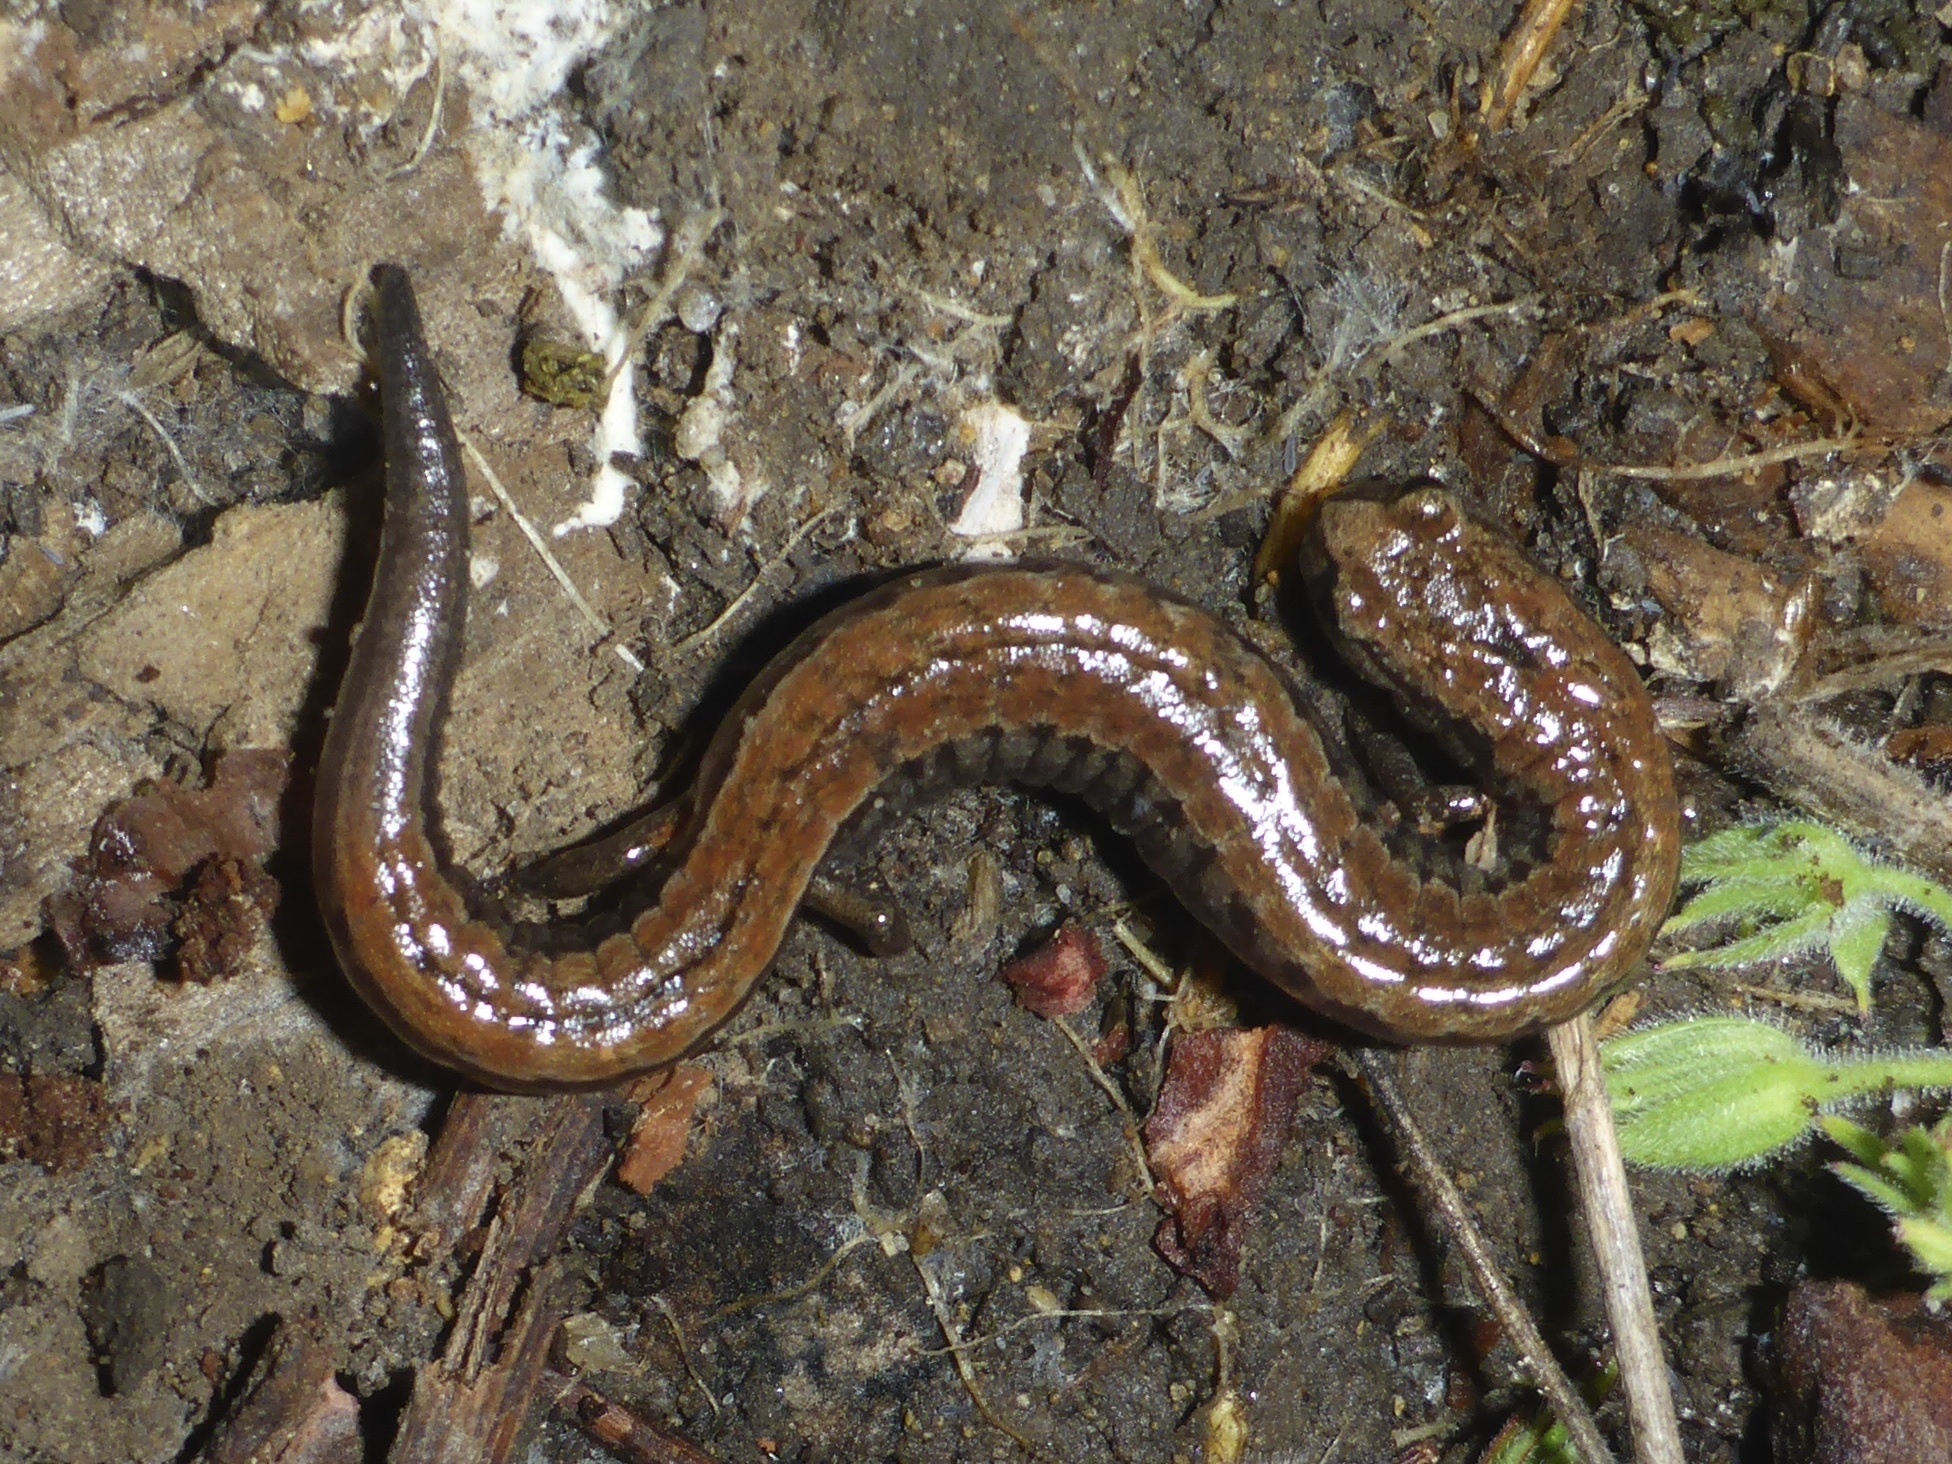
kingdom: Animalia
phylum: Chordata
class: Amphibia
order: Caudata
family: Plethodontidae
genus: Batrachoseps
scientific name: Batrachoseps attenuatus
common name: California slender salamander
